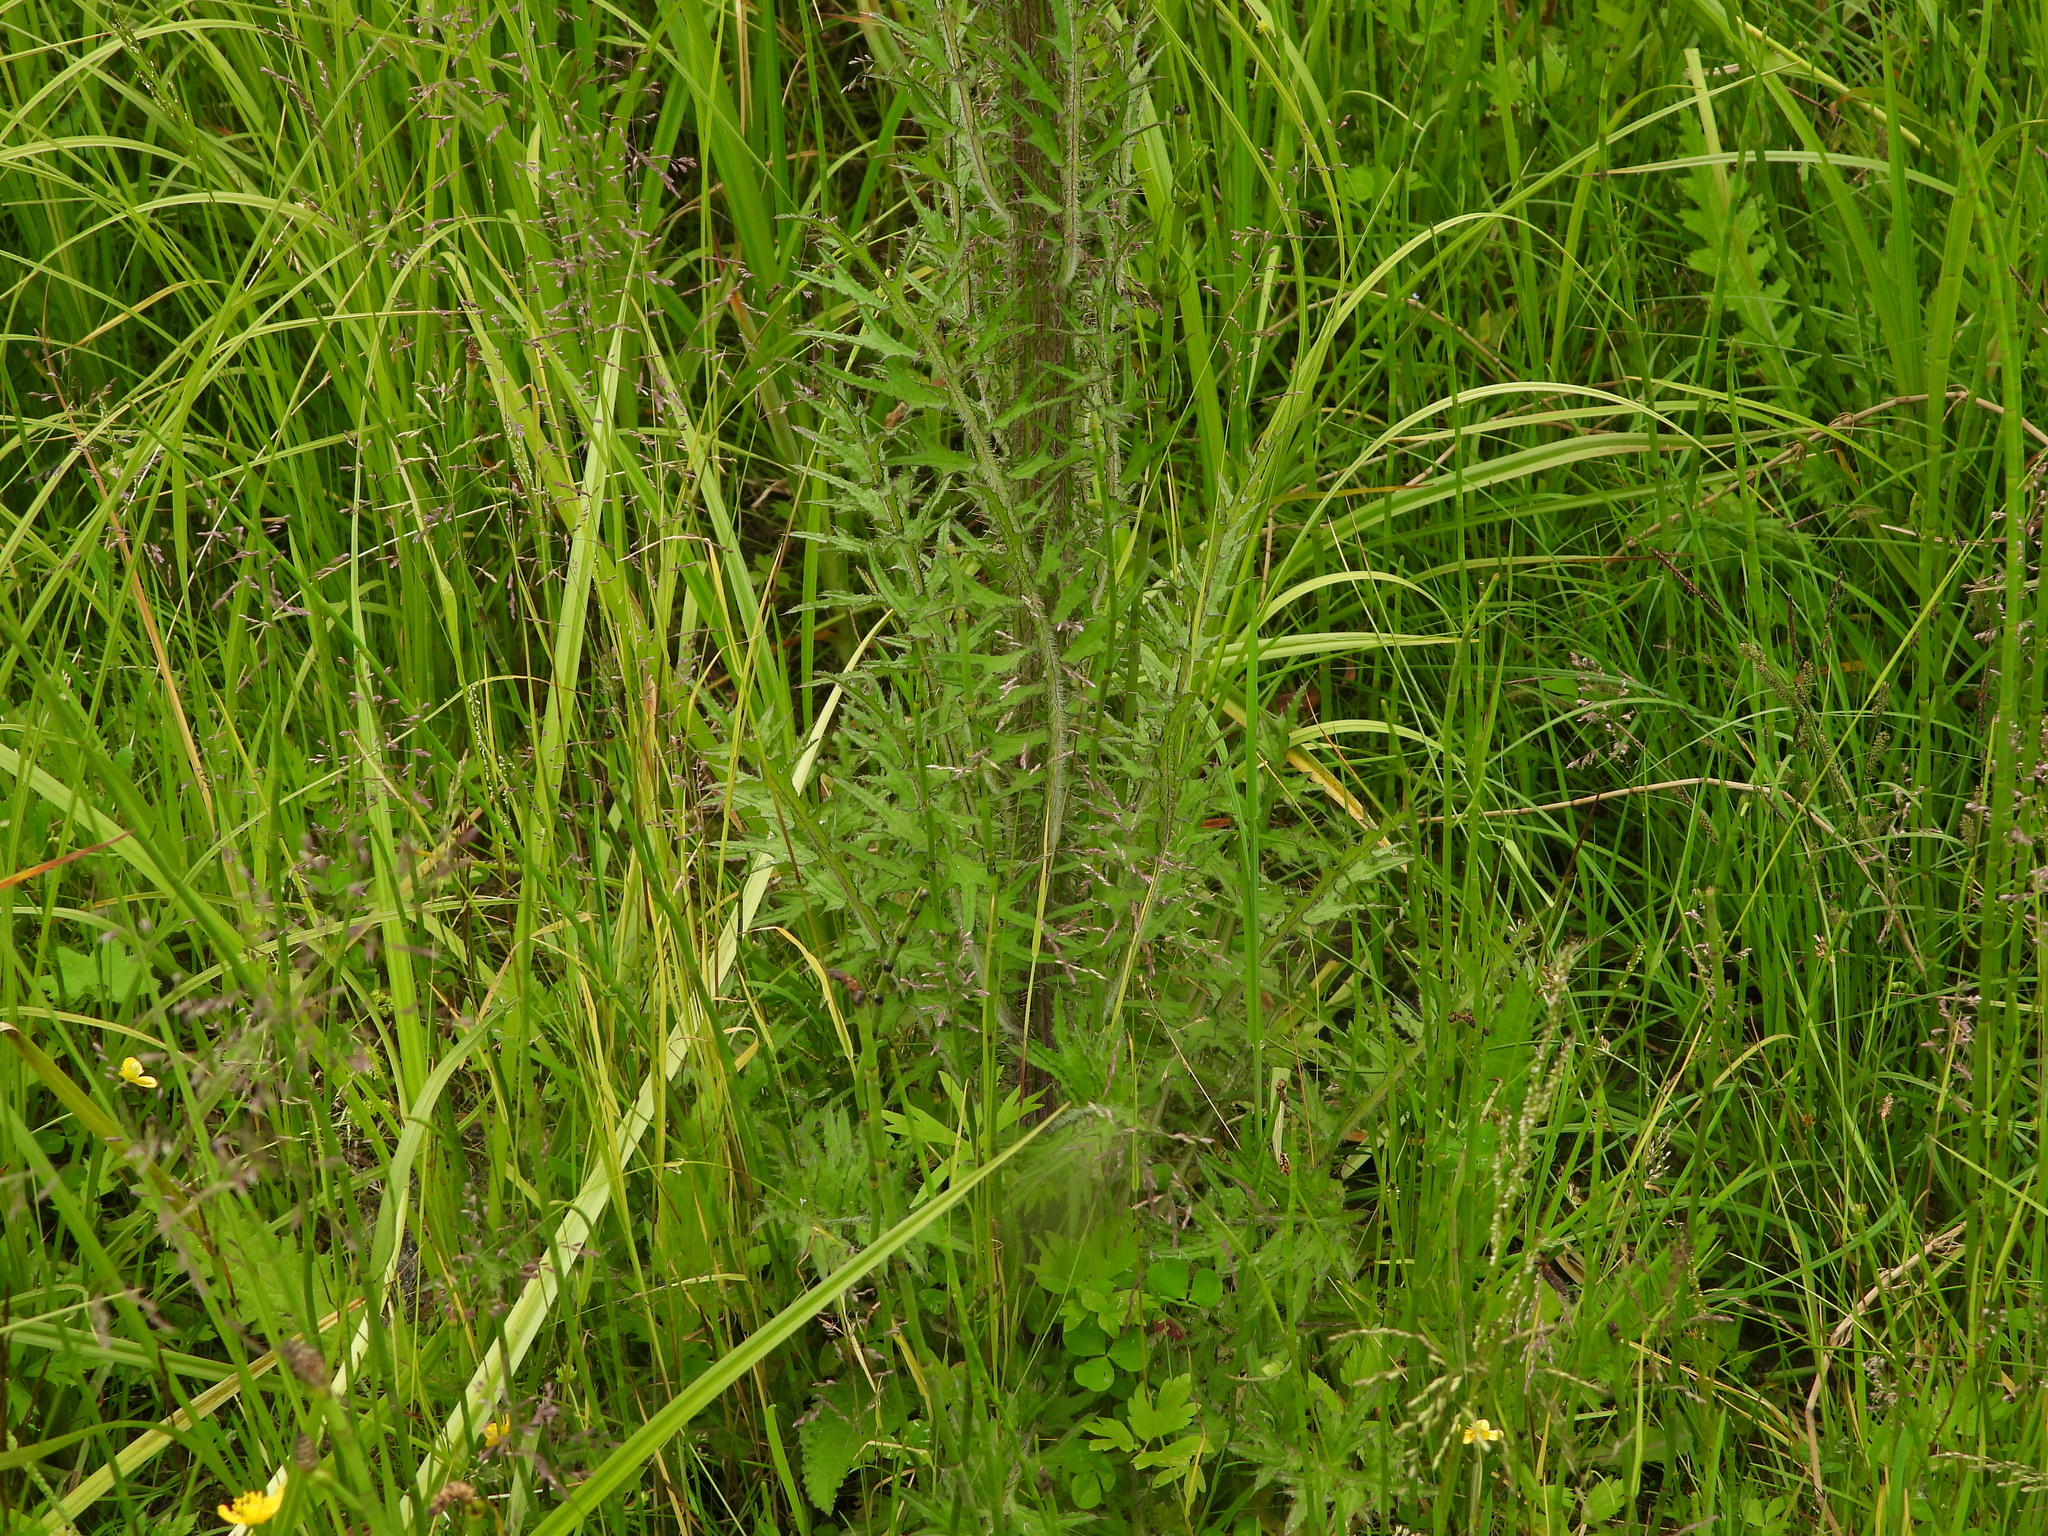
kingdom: Plantae
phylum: Tracheophyta
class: Magnoliopsida
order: Asterales
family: Asteraceae
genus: Cirsium
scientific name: Cirsium palustre
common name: Marsh thistle
